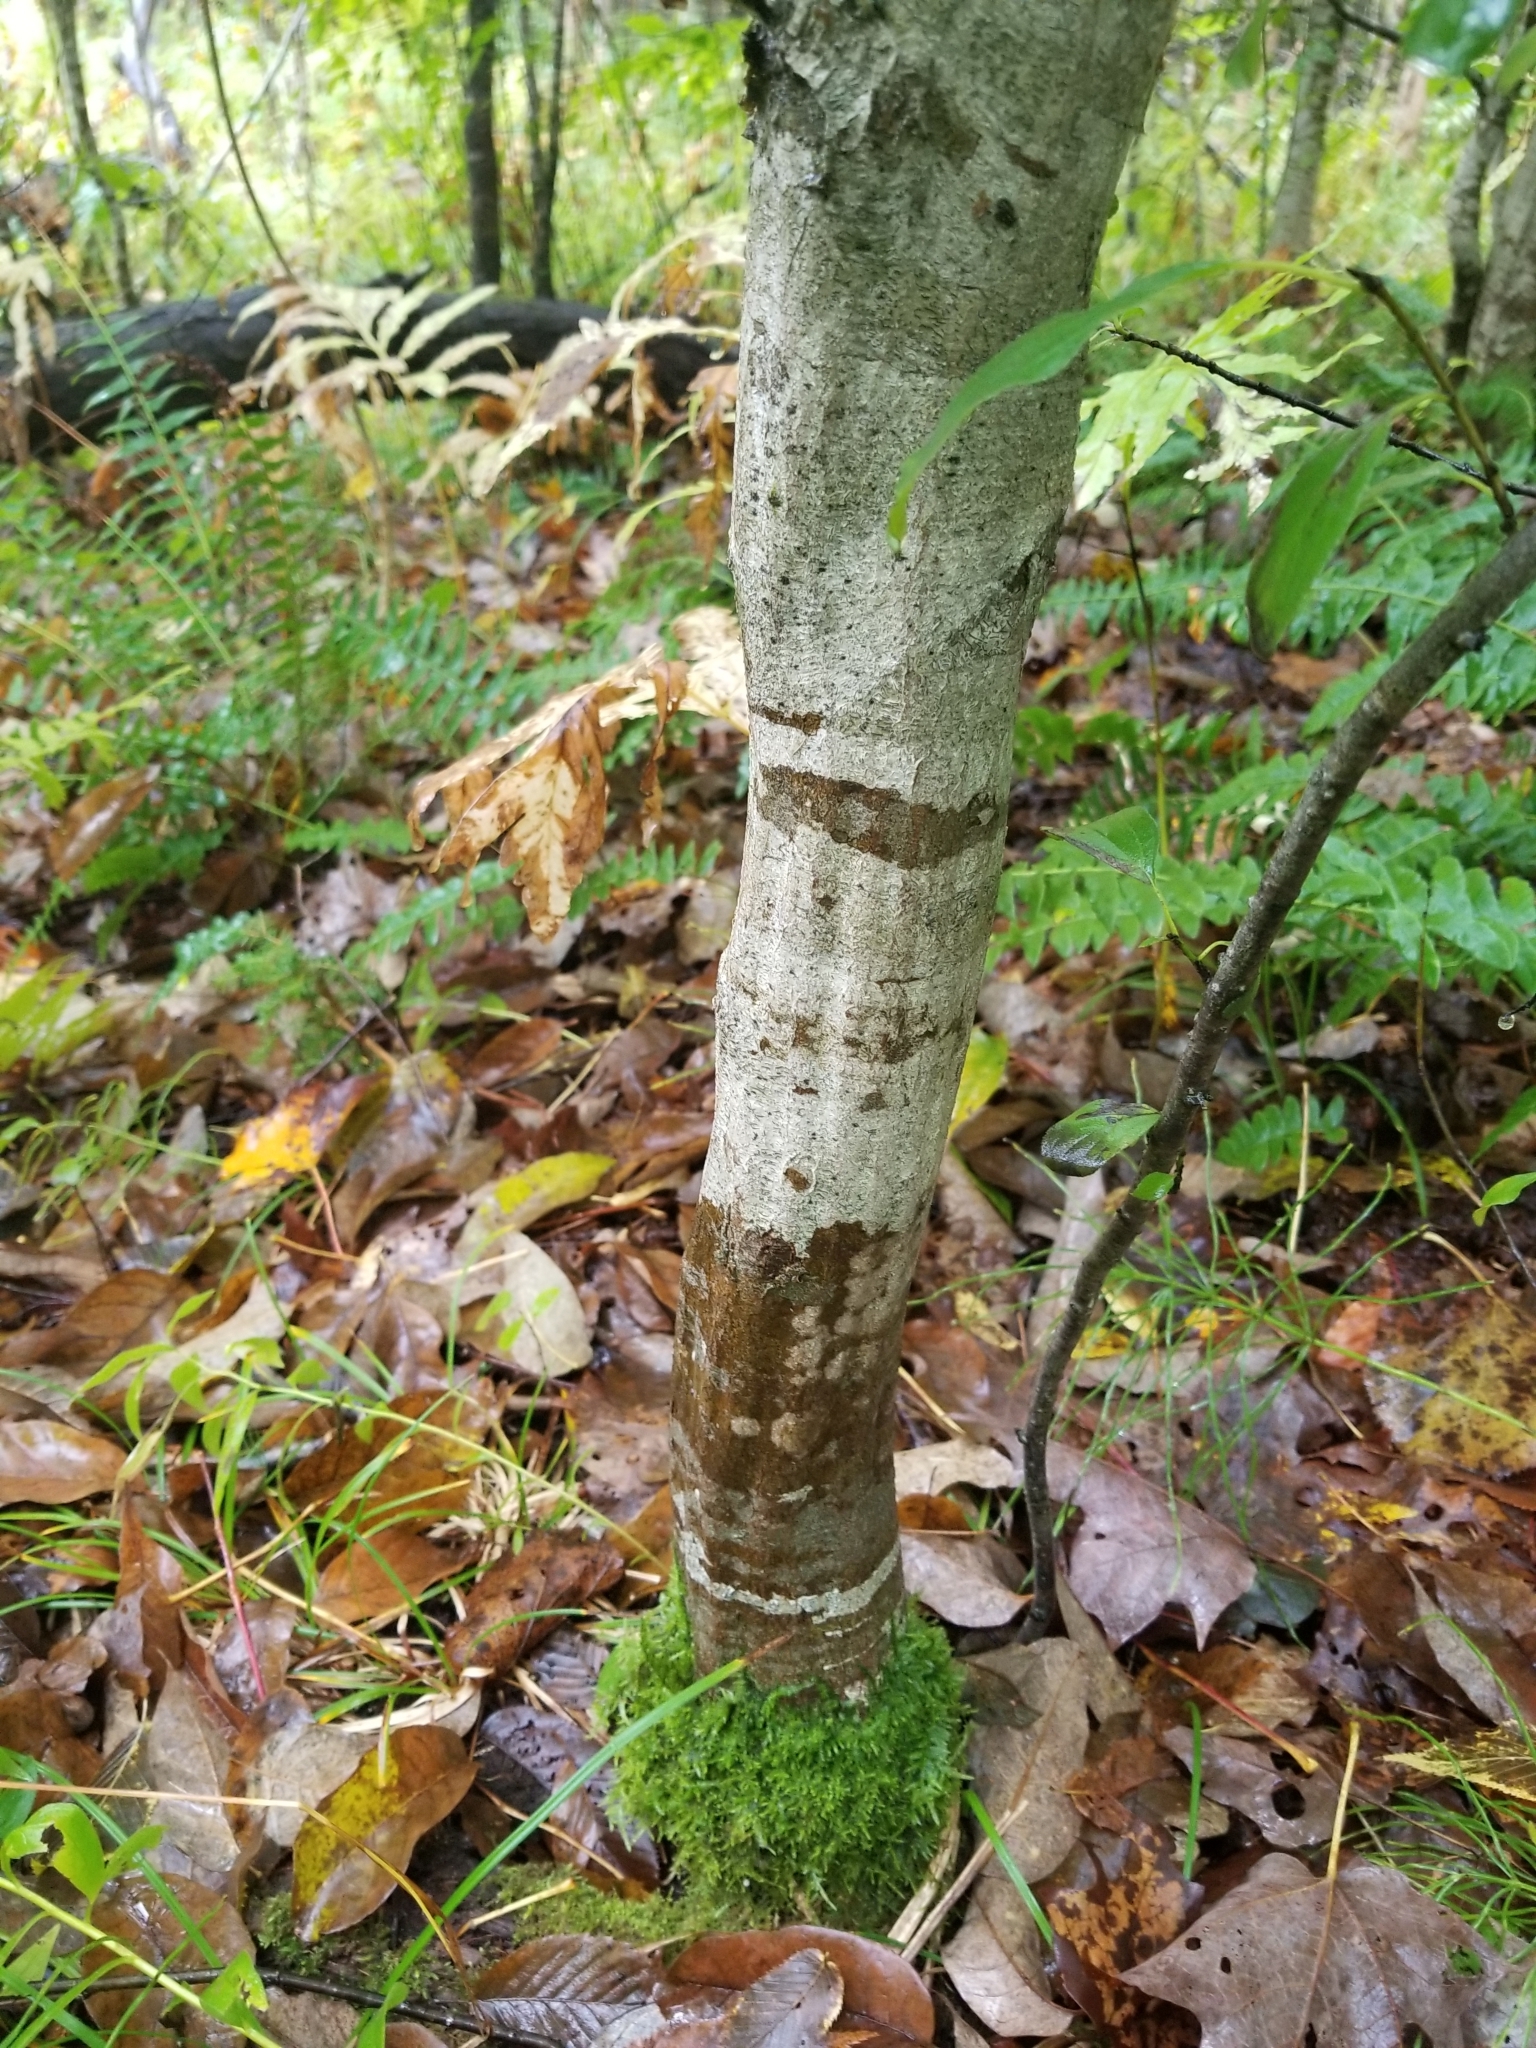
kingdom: Plantae
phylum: Tracheophyta
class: Magnoliopsida
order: Fagales
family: Betulaceae
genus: Carpinus
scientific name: Carpinus caroliniana
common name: American hornbeam
